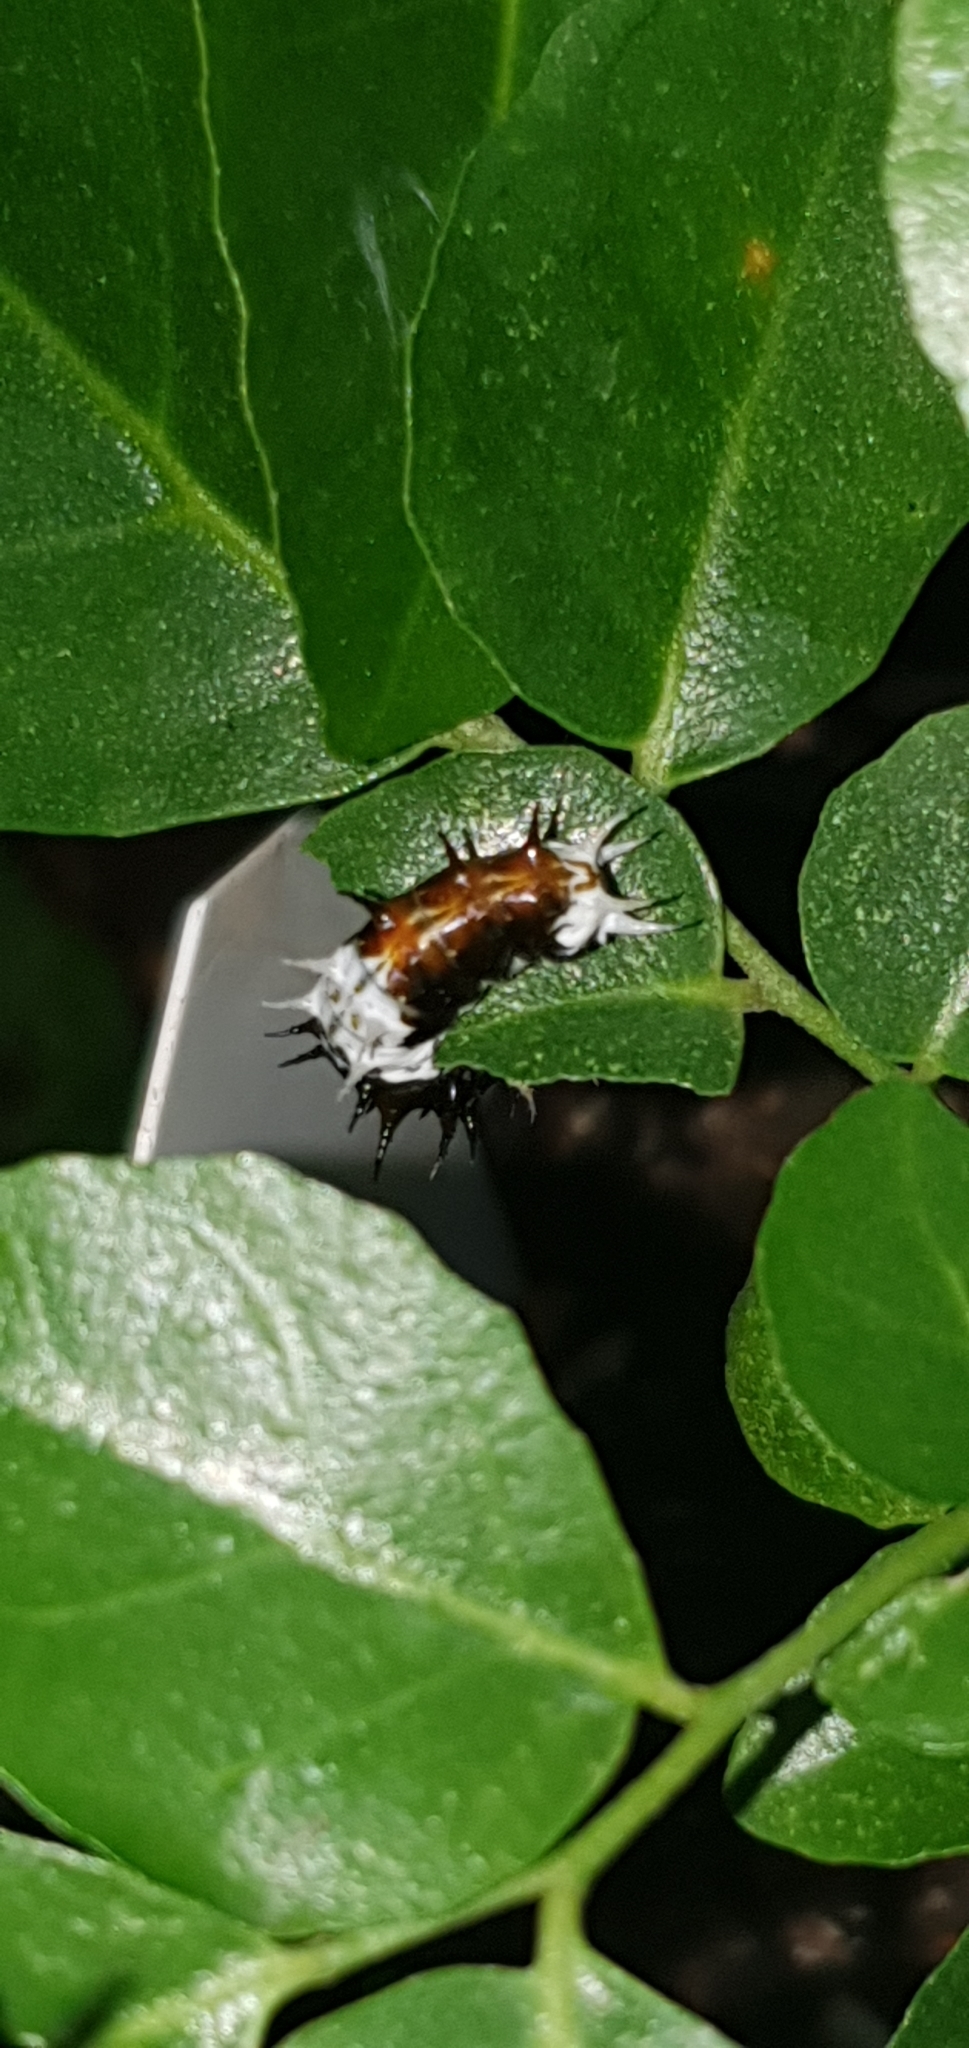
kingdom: Animalia
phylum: Arthropoda
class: Insecta
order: Lepidoptera
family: Papilionidae
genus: Papilio
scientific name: Papilio aegeus
